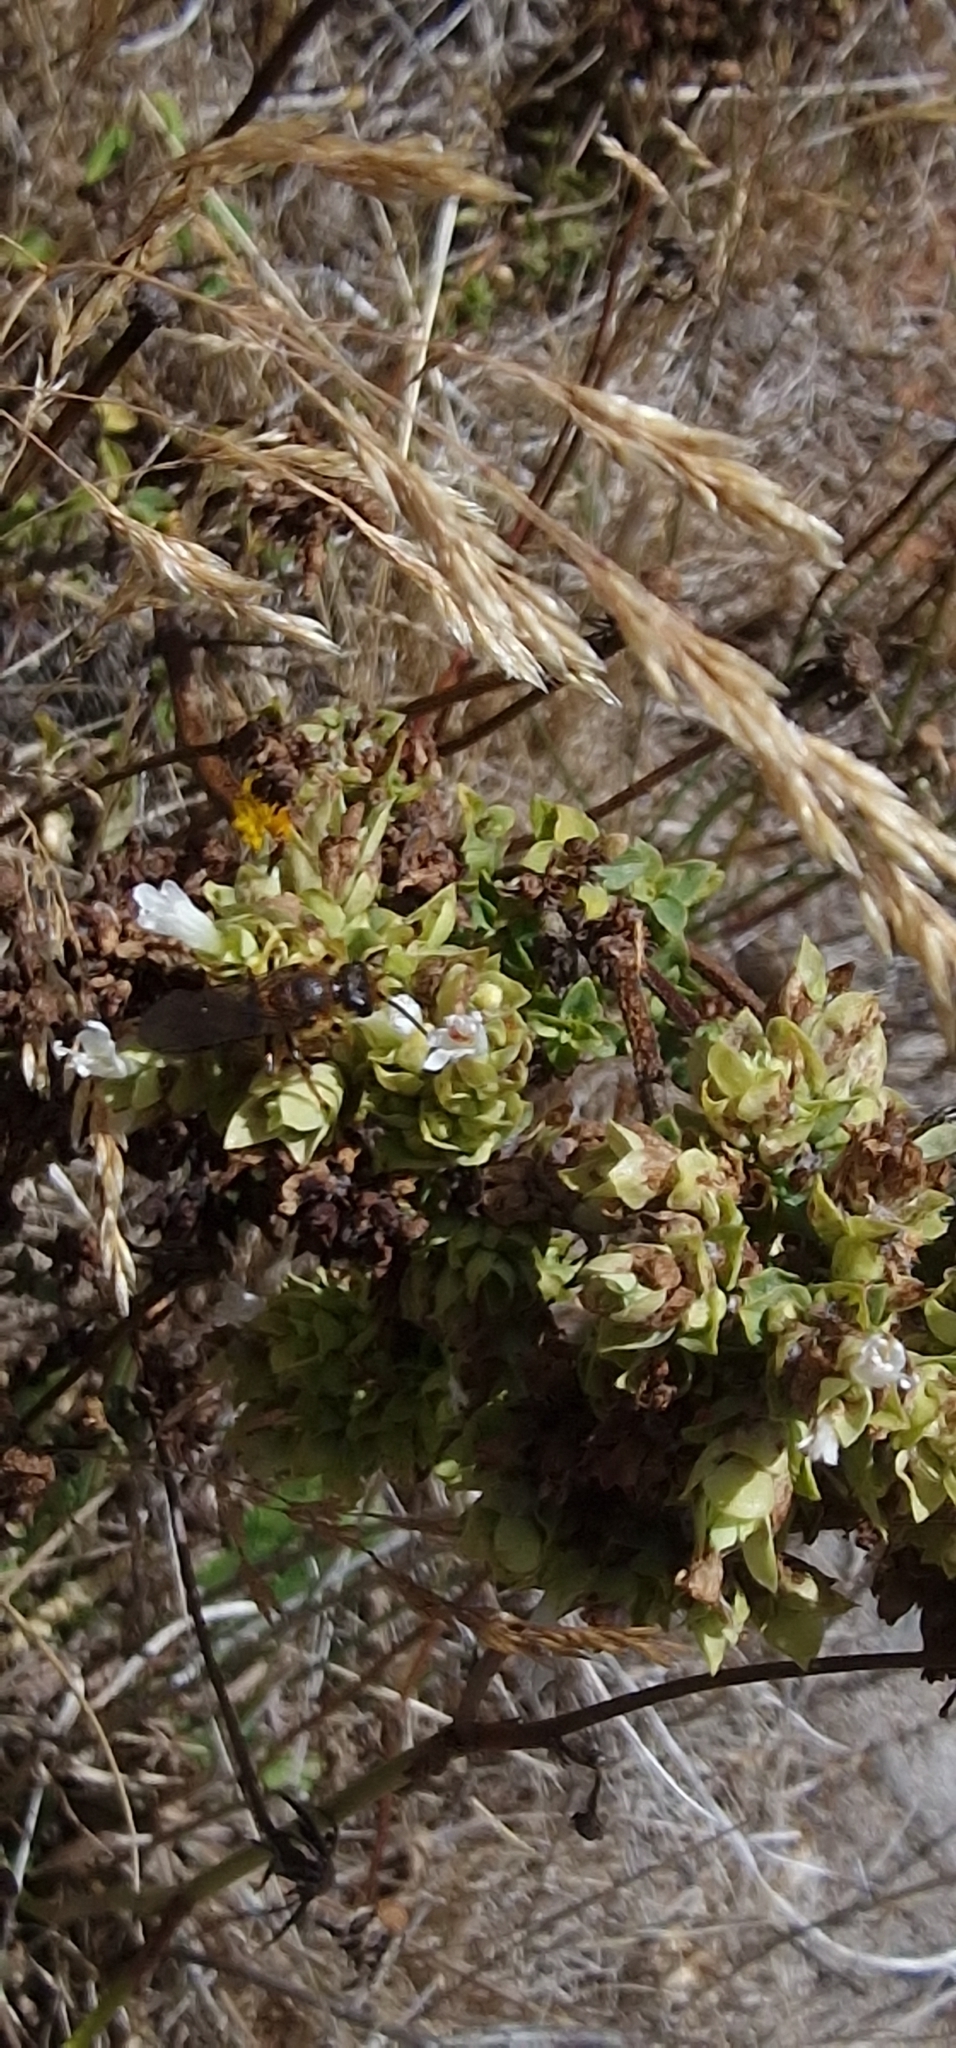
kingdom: Animalia
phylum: Arthropoda
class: Insecta
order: Hymenoptera
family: Halictidae
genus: Halictus
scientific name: Halictus frontalis
